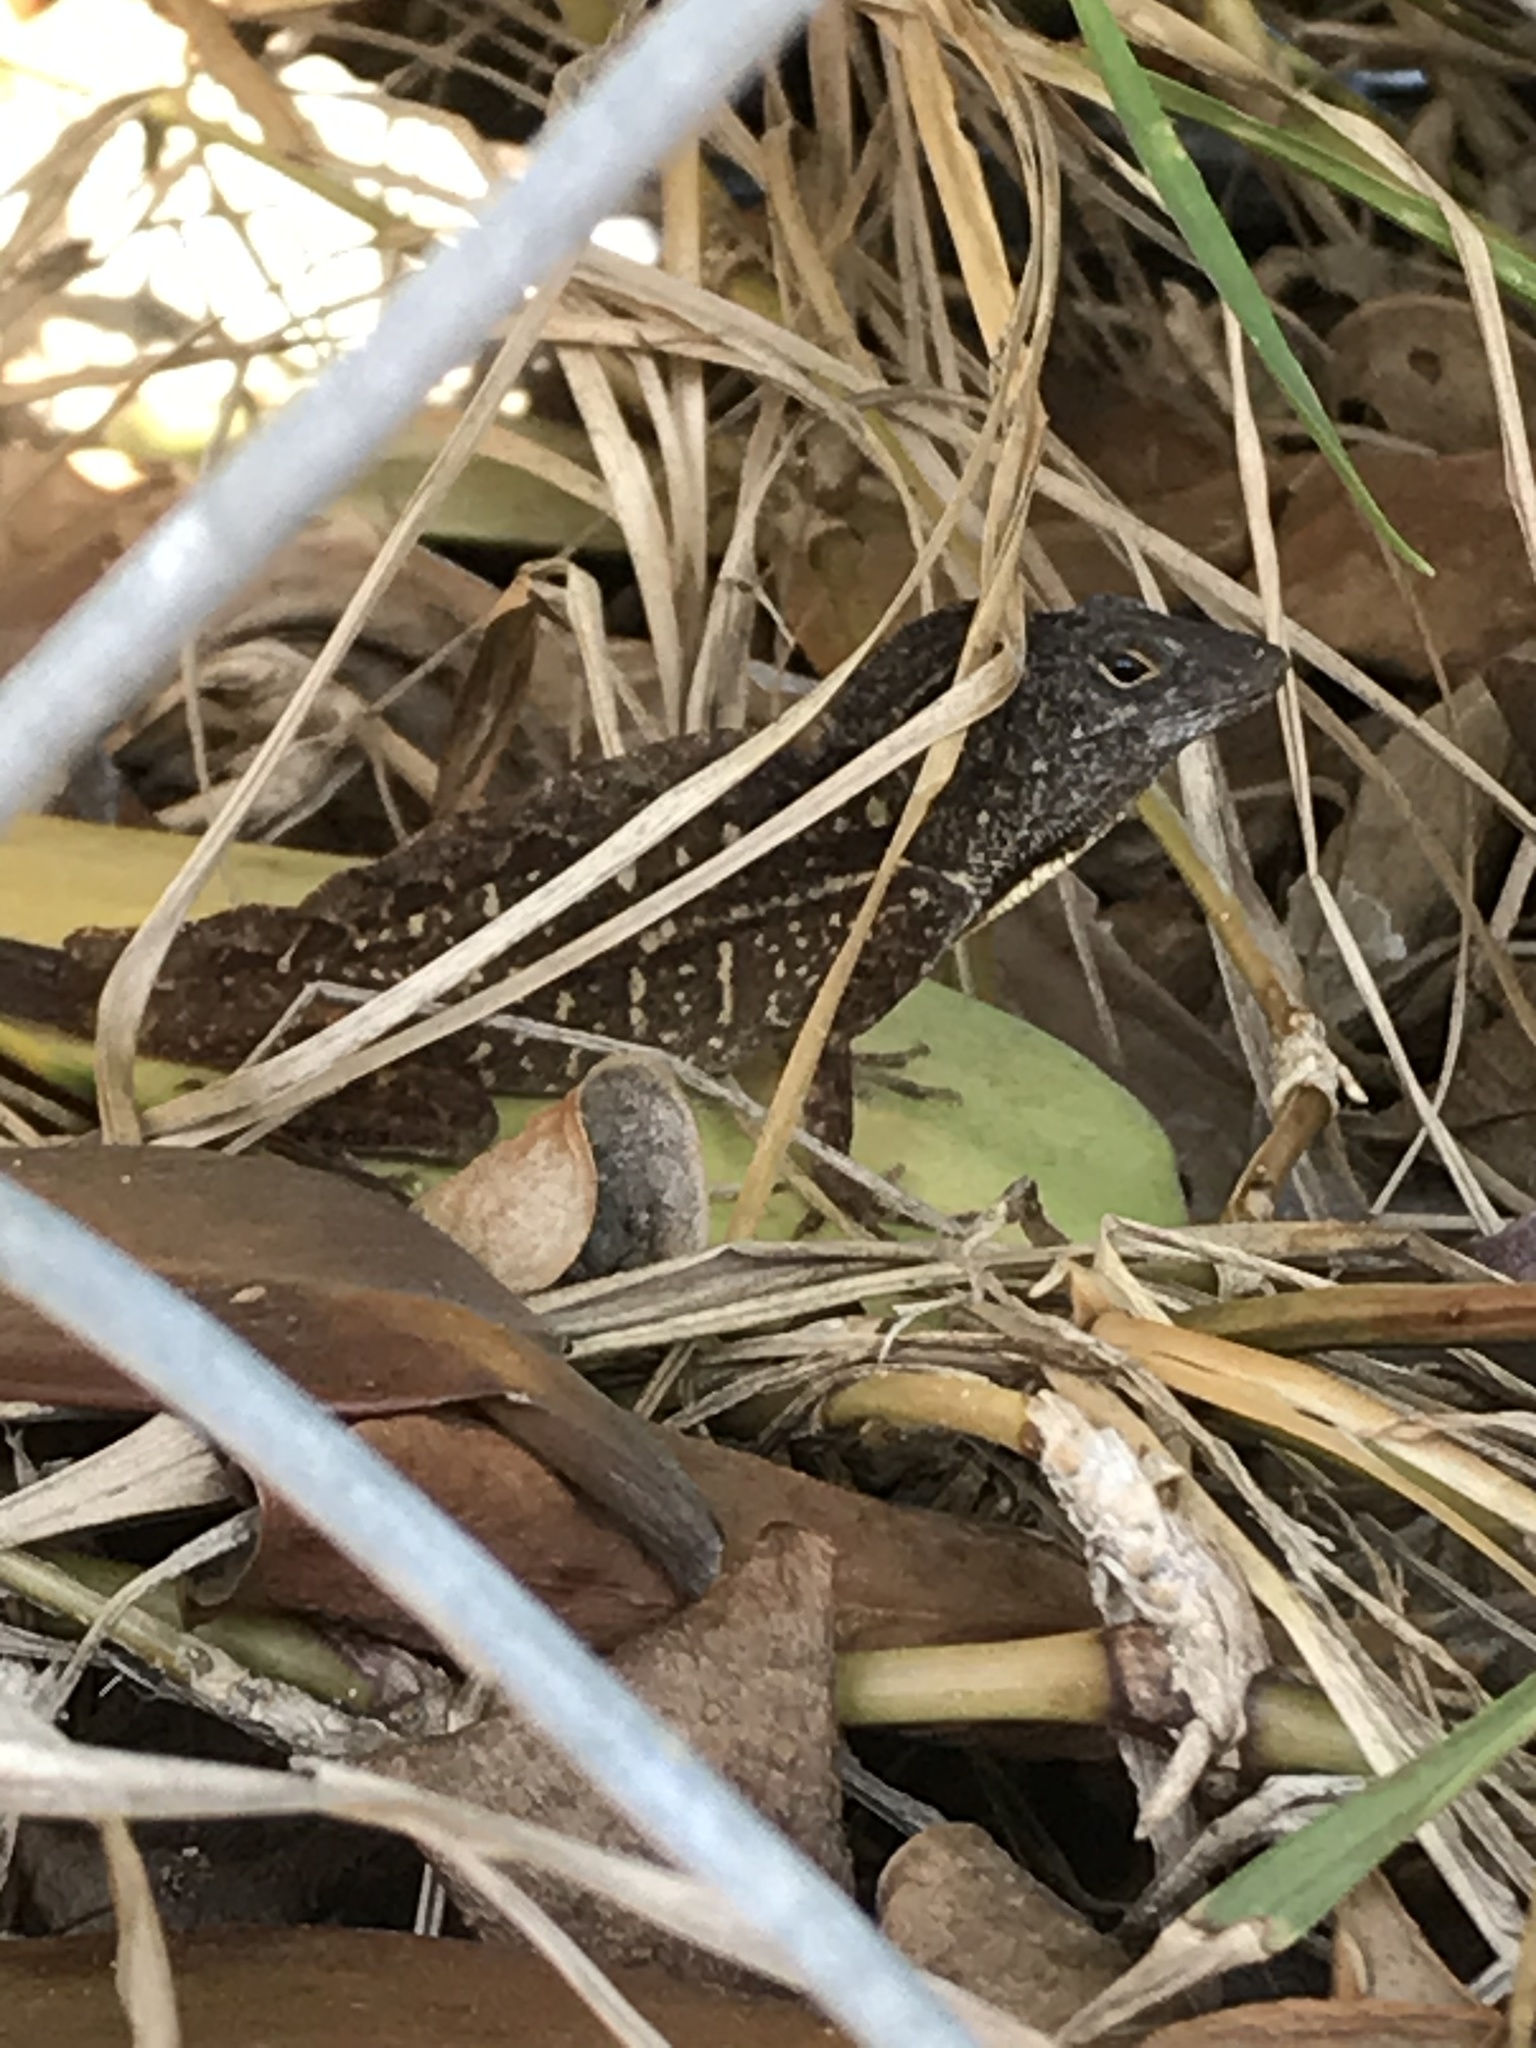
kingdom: Animalia
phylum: Chordata
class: Squamata
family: Dactyloidae
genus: Anolis
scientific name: Anolis sagrei
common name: Brown anole
